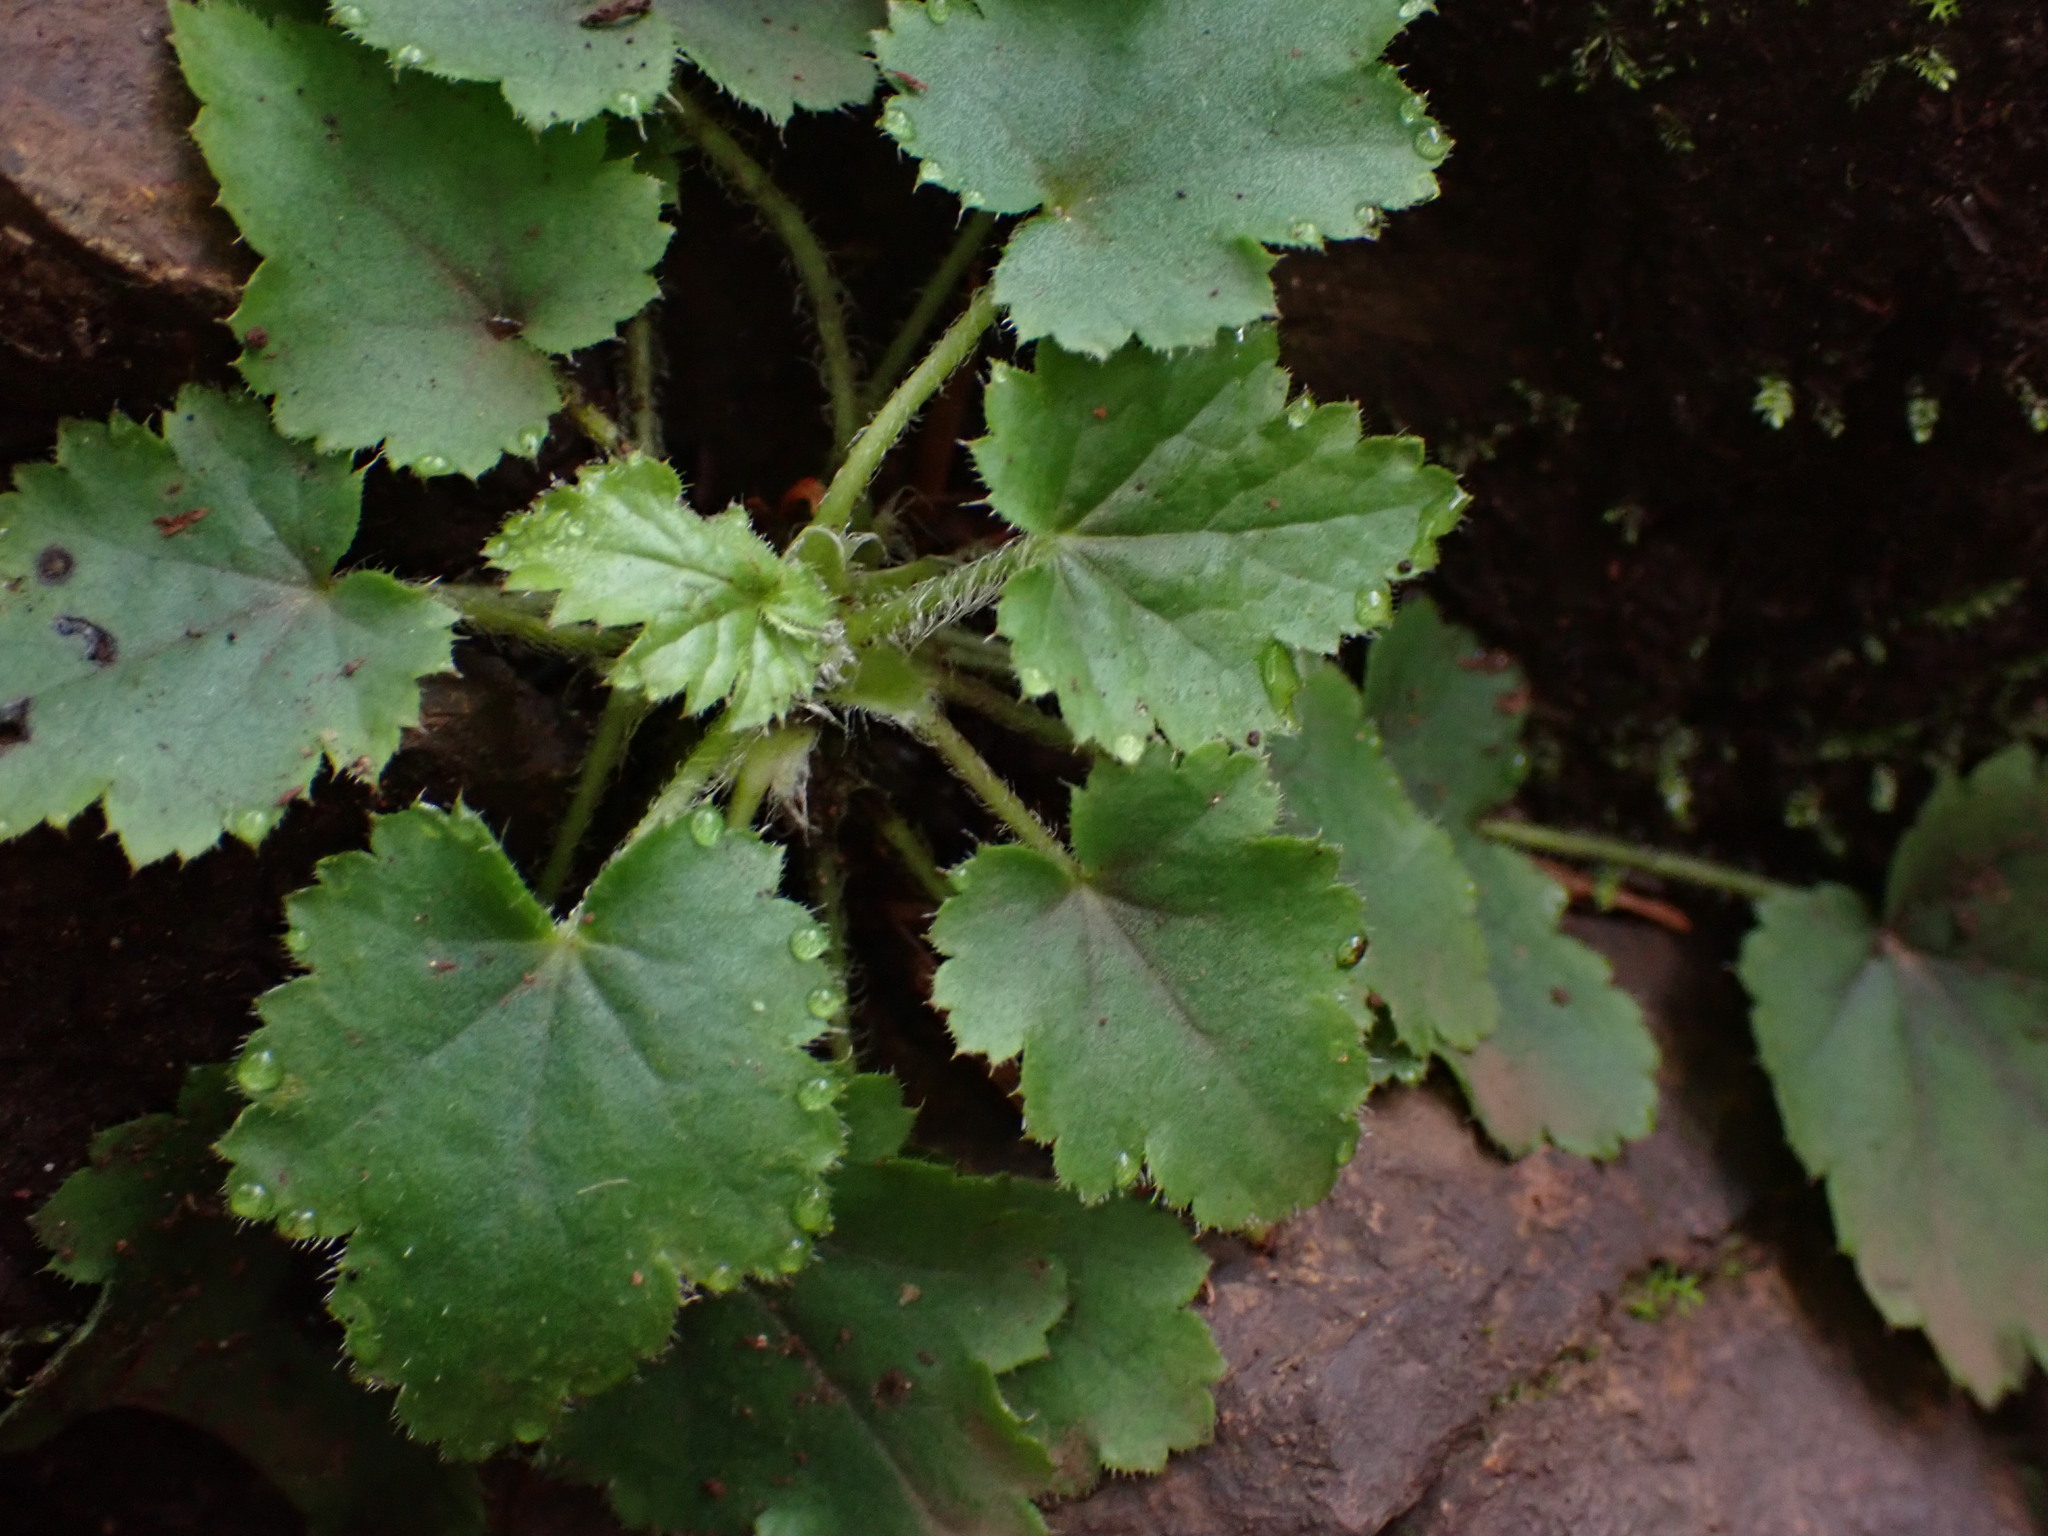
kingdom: Plantae
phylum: Tracheophyta
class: Magnoliopsida
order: Saxifragales
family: Saxifragaceae
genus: Heuchera
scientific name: Heuchera micrantha
